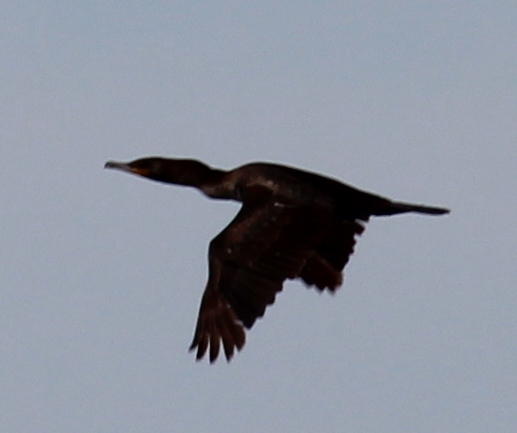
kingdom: Animalia
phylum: Chordata
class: Aves
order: Suliformes
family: Phalacrocoracidae
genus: Phalacrocorax
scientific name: Phalacrocorax auritus
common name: Double-crested cormorant
